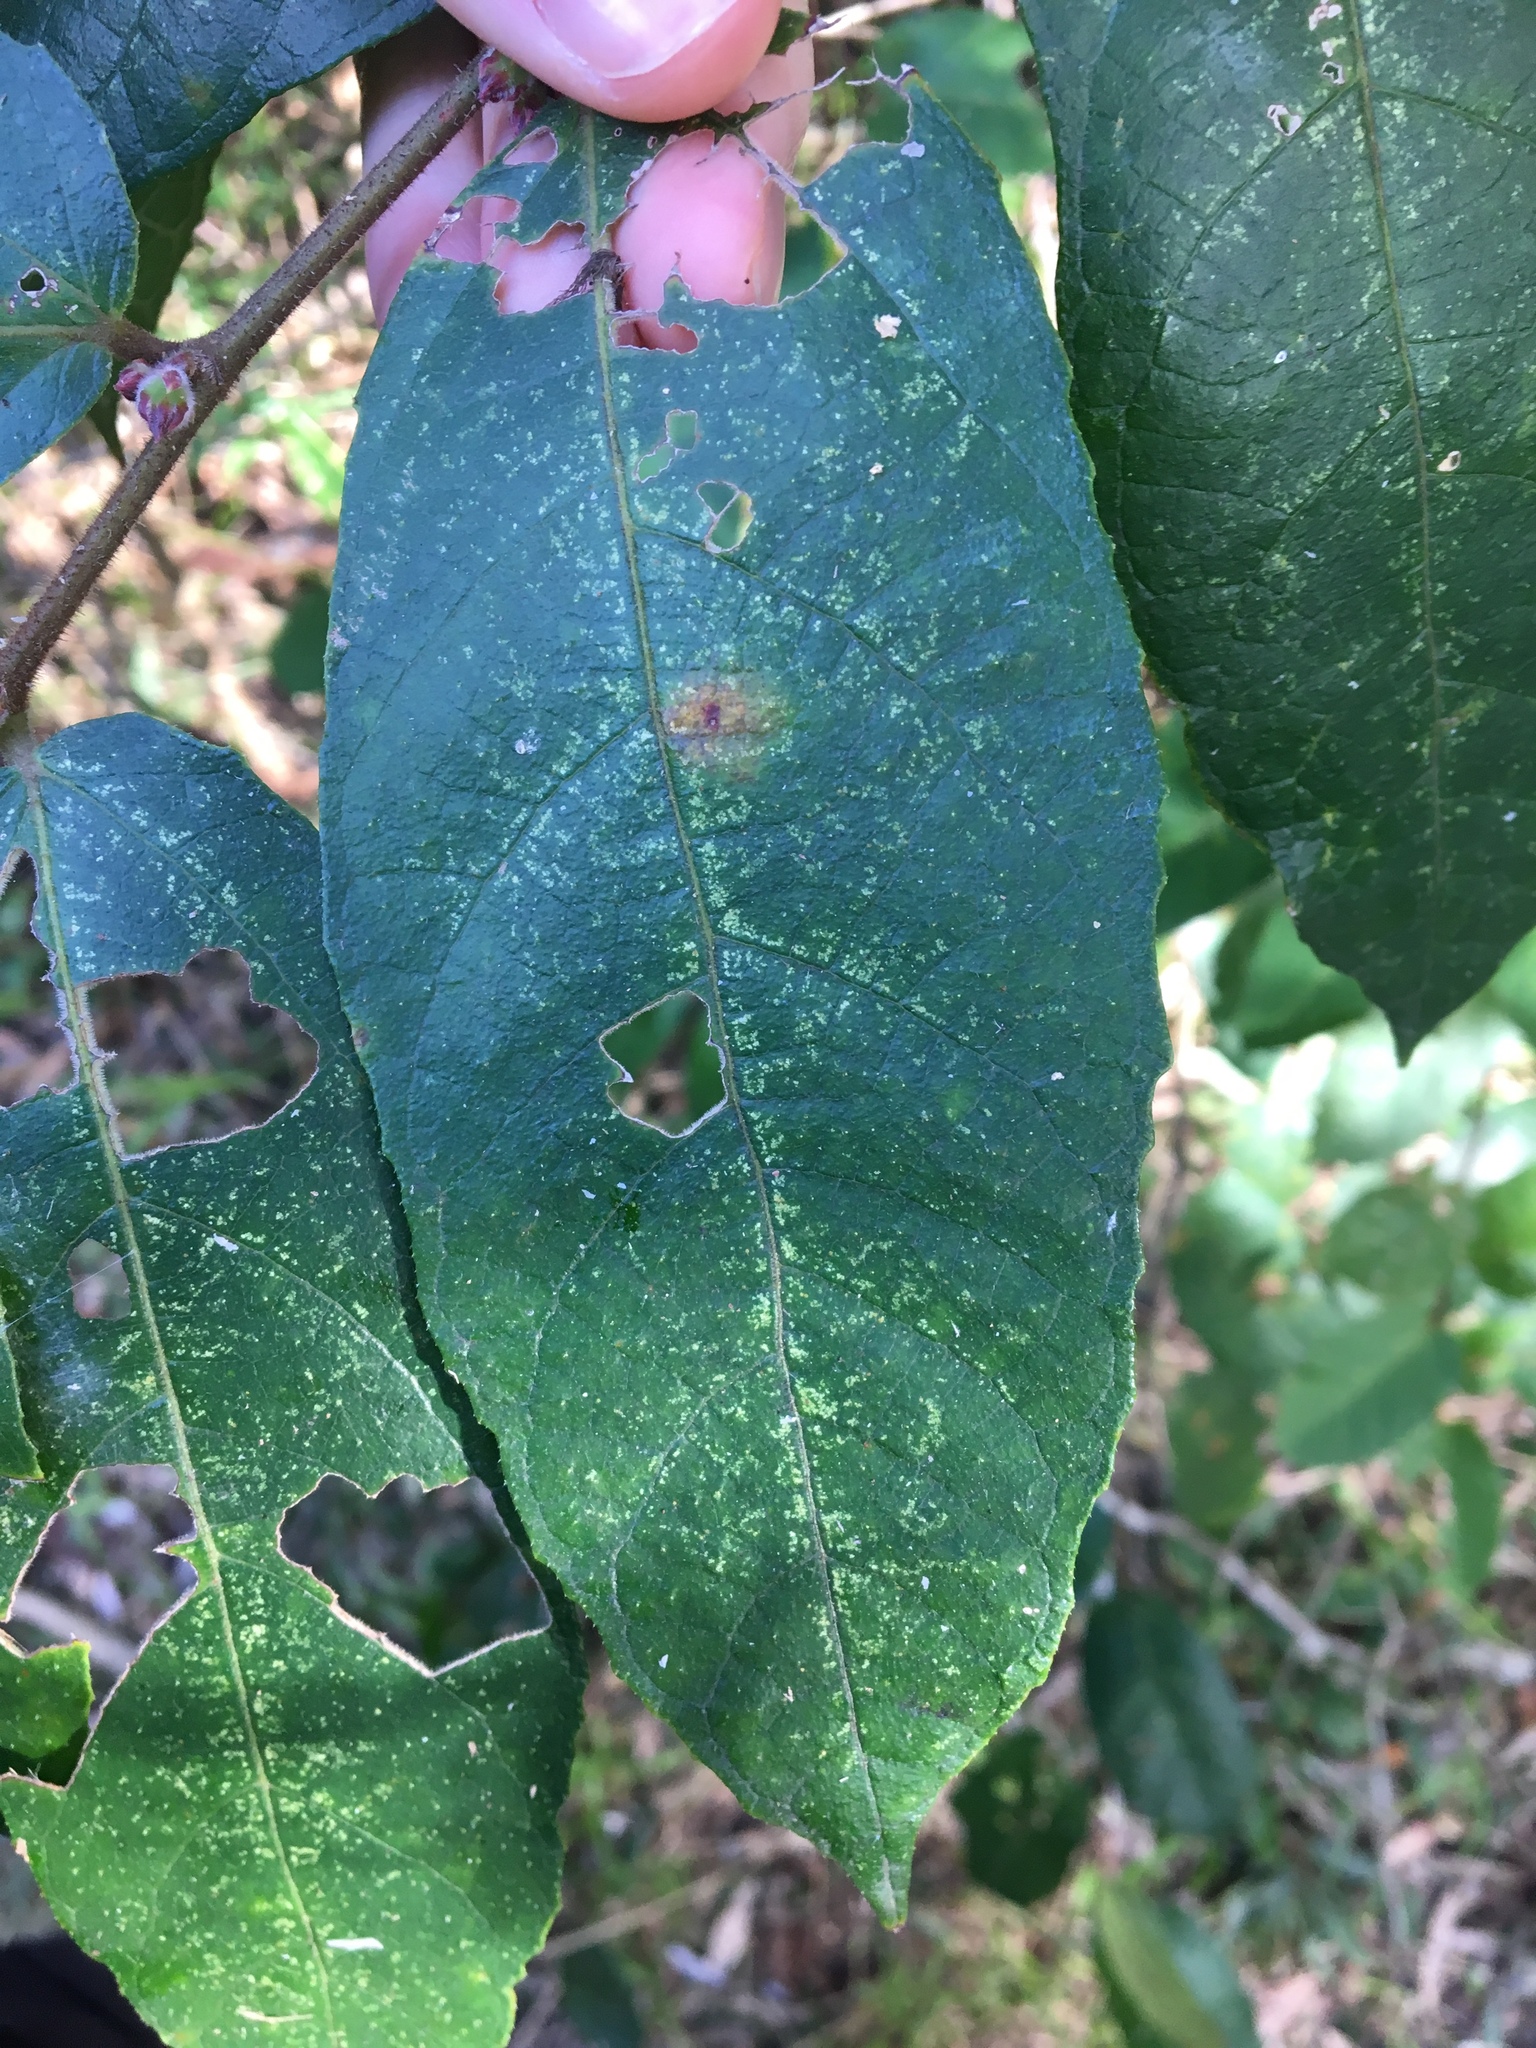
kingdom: Plantae
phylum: Tracheophyta
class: Magnoliopsida
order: Rosales
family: Moraceae
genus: Ficus
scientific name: Ficus coronata
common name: Creek sandpaper fig
